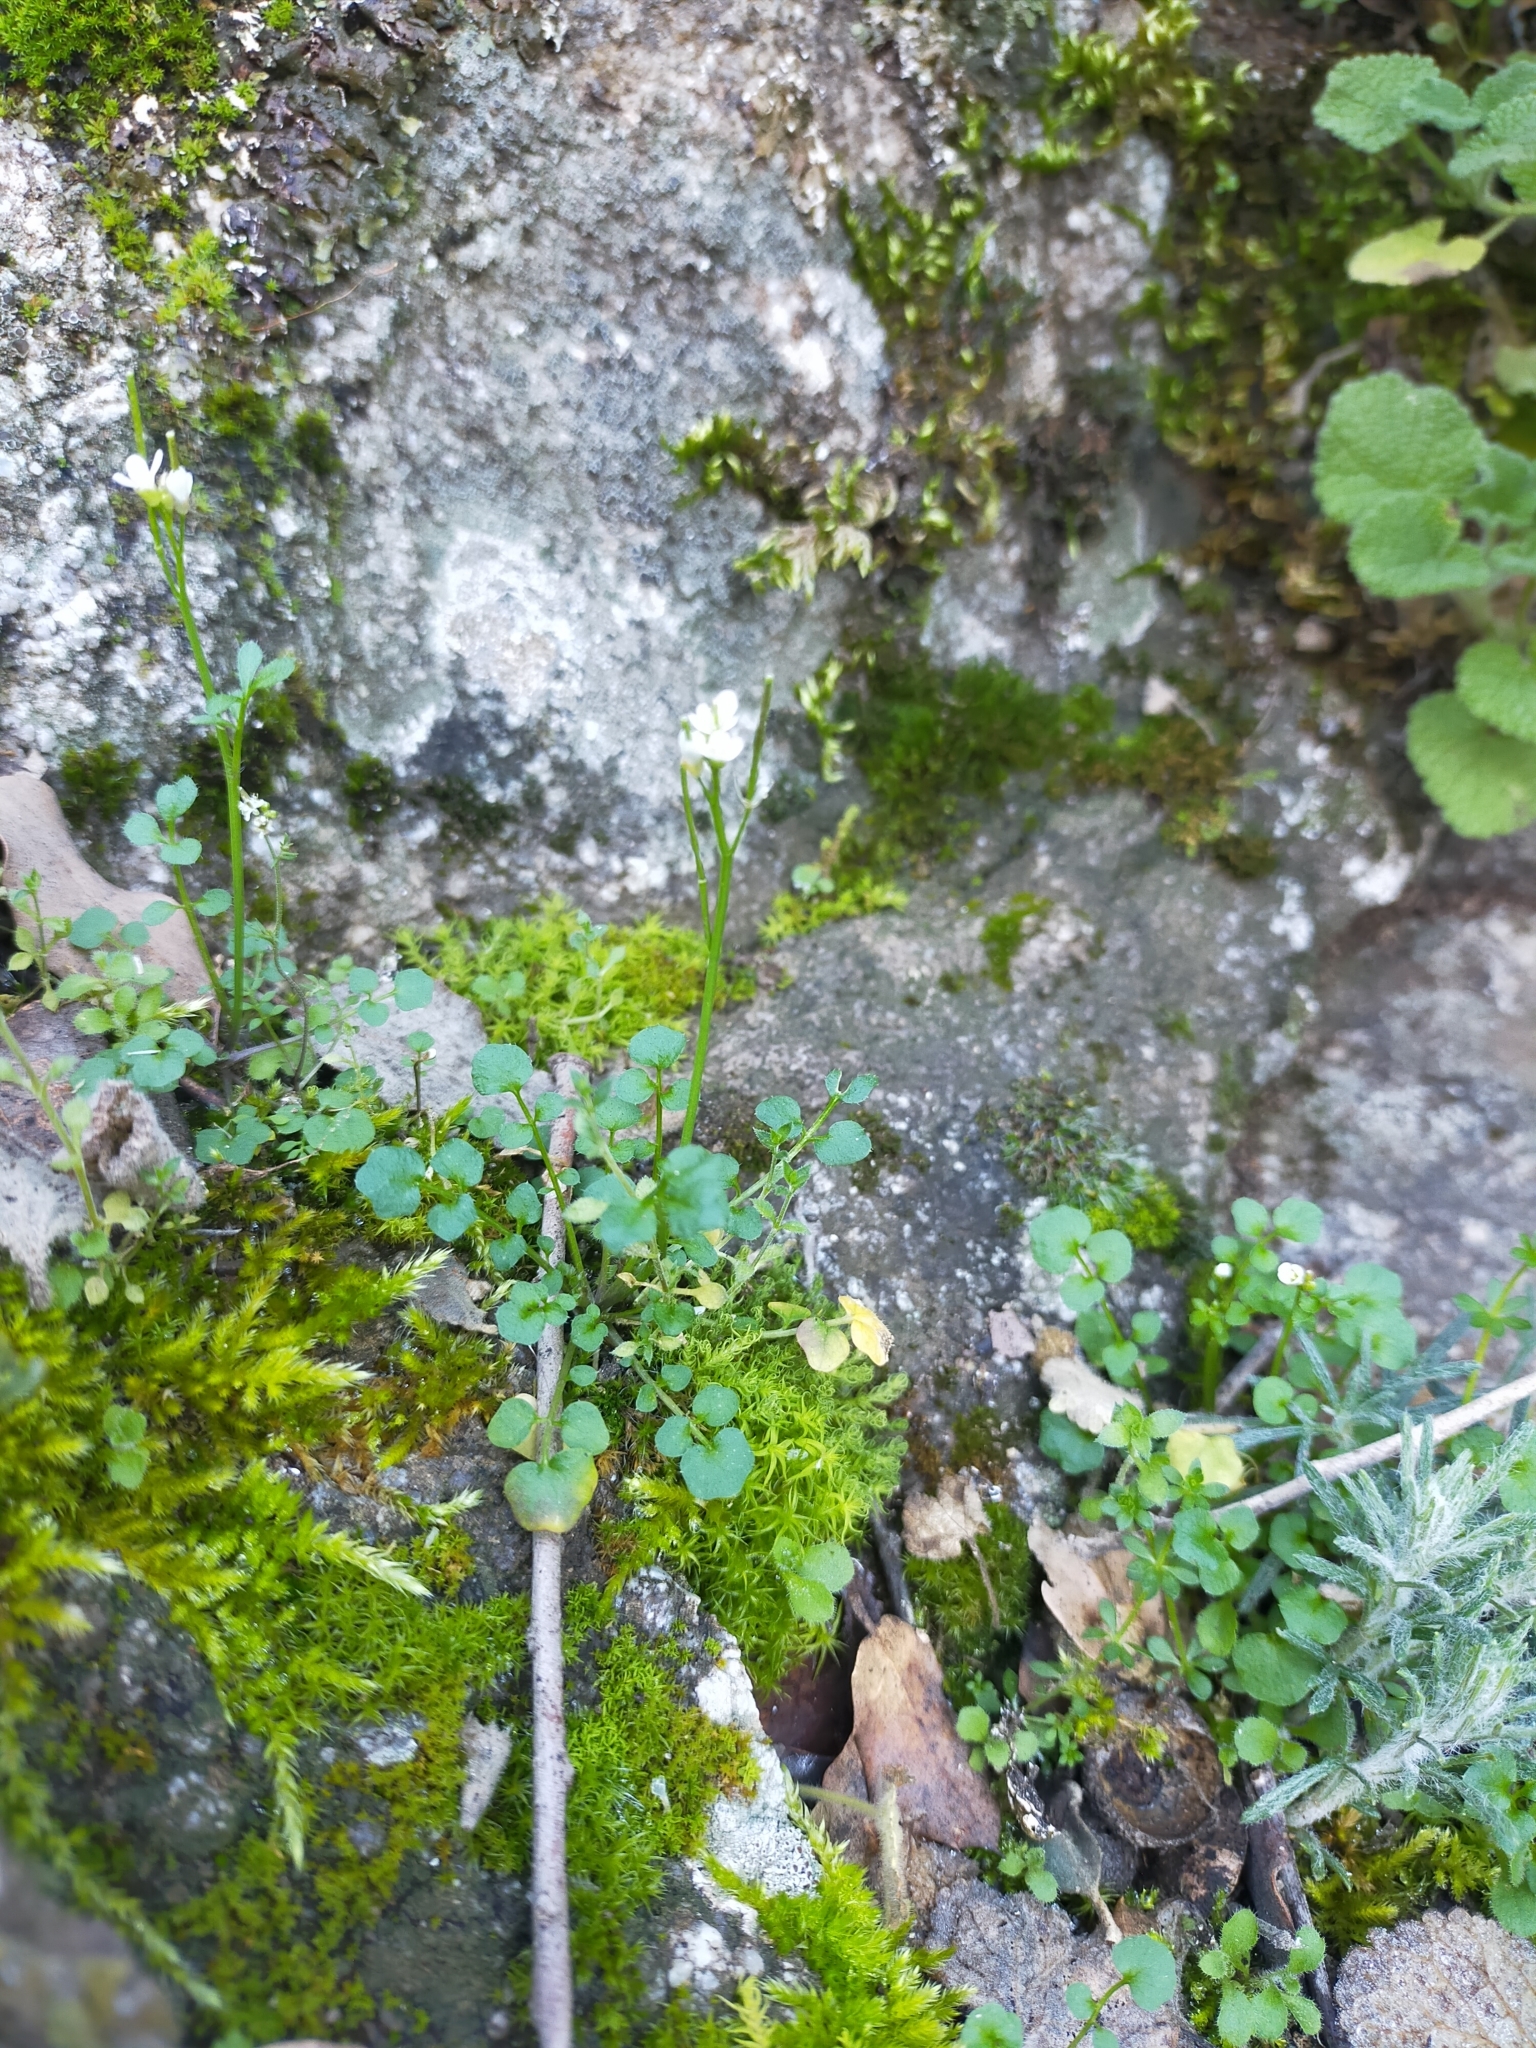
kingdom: Plantae
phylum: Tracheophyta
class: Magnoliopsida
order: Brassicales
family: Brassicaceae
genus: Cardamine
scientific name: Cardamine hirsuta
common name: Hairy bittercress
